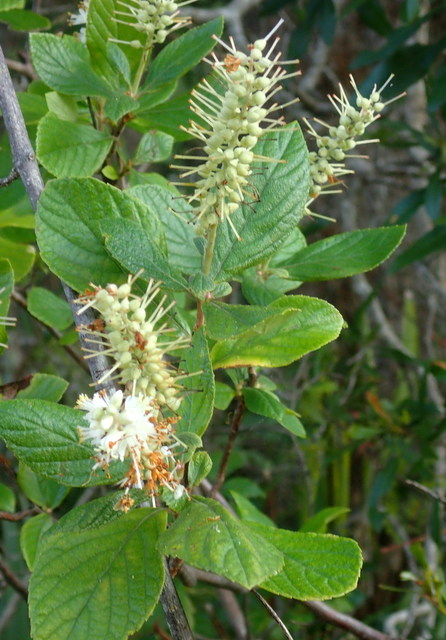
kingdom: Plantae
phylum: Tracheophyta
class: Magnoliopsida
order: Ericales
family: Clethraceae
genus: Clethra
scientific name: Clethra alnifolia
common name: Sweet pepperbush
